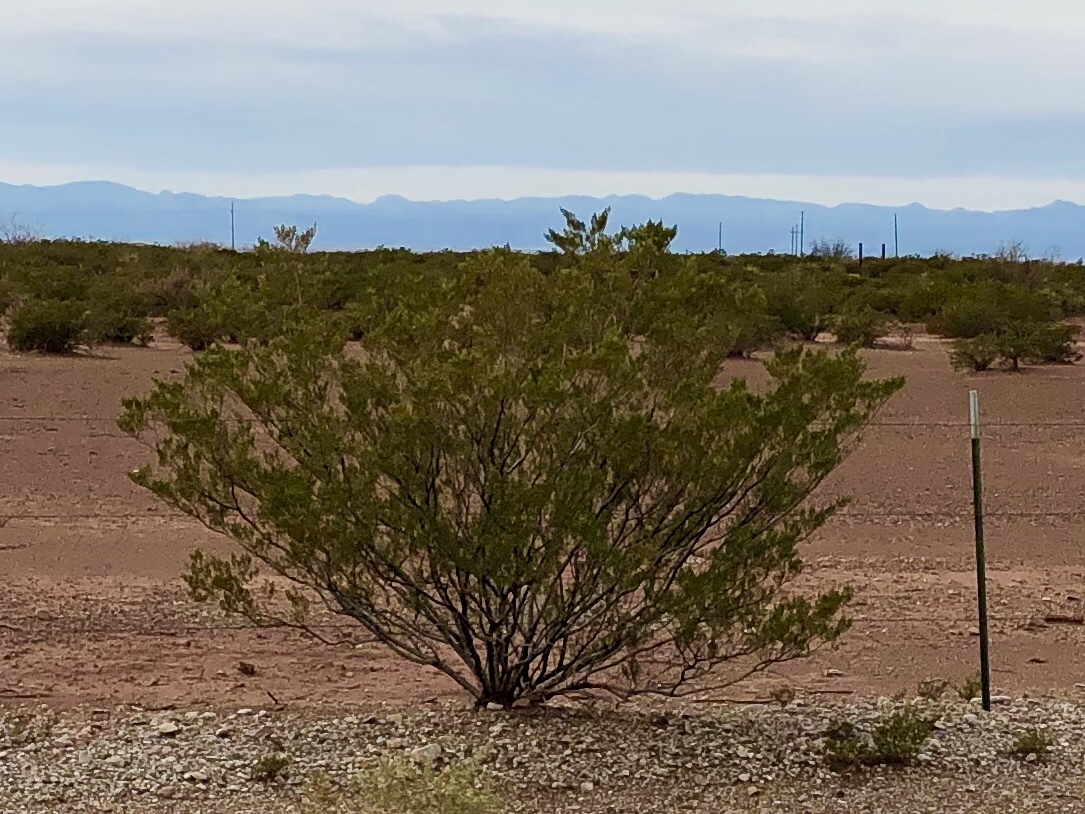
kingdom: Plantae
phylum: Tracheophyta
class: Magnoliopsida
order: Zygophyllales
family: Zygophyllaceae
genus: Larrea
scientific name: Larrea tridentata
